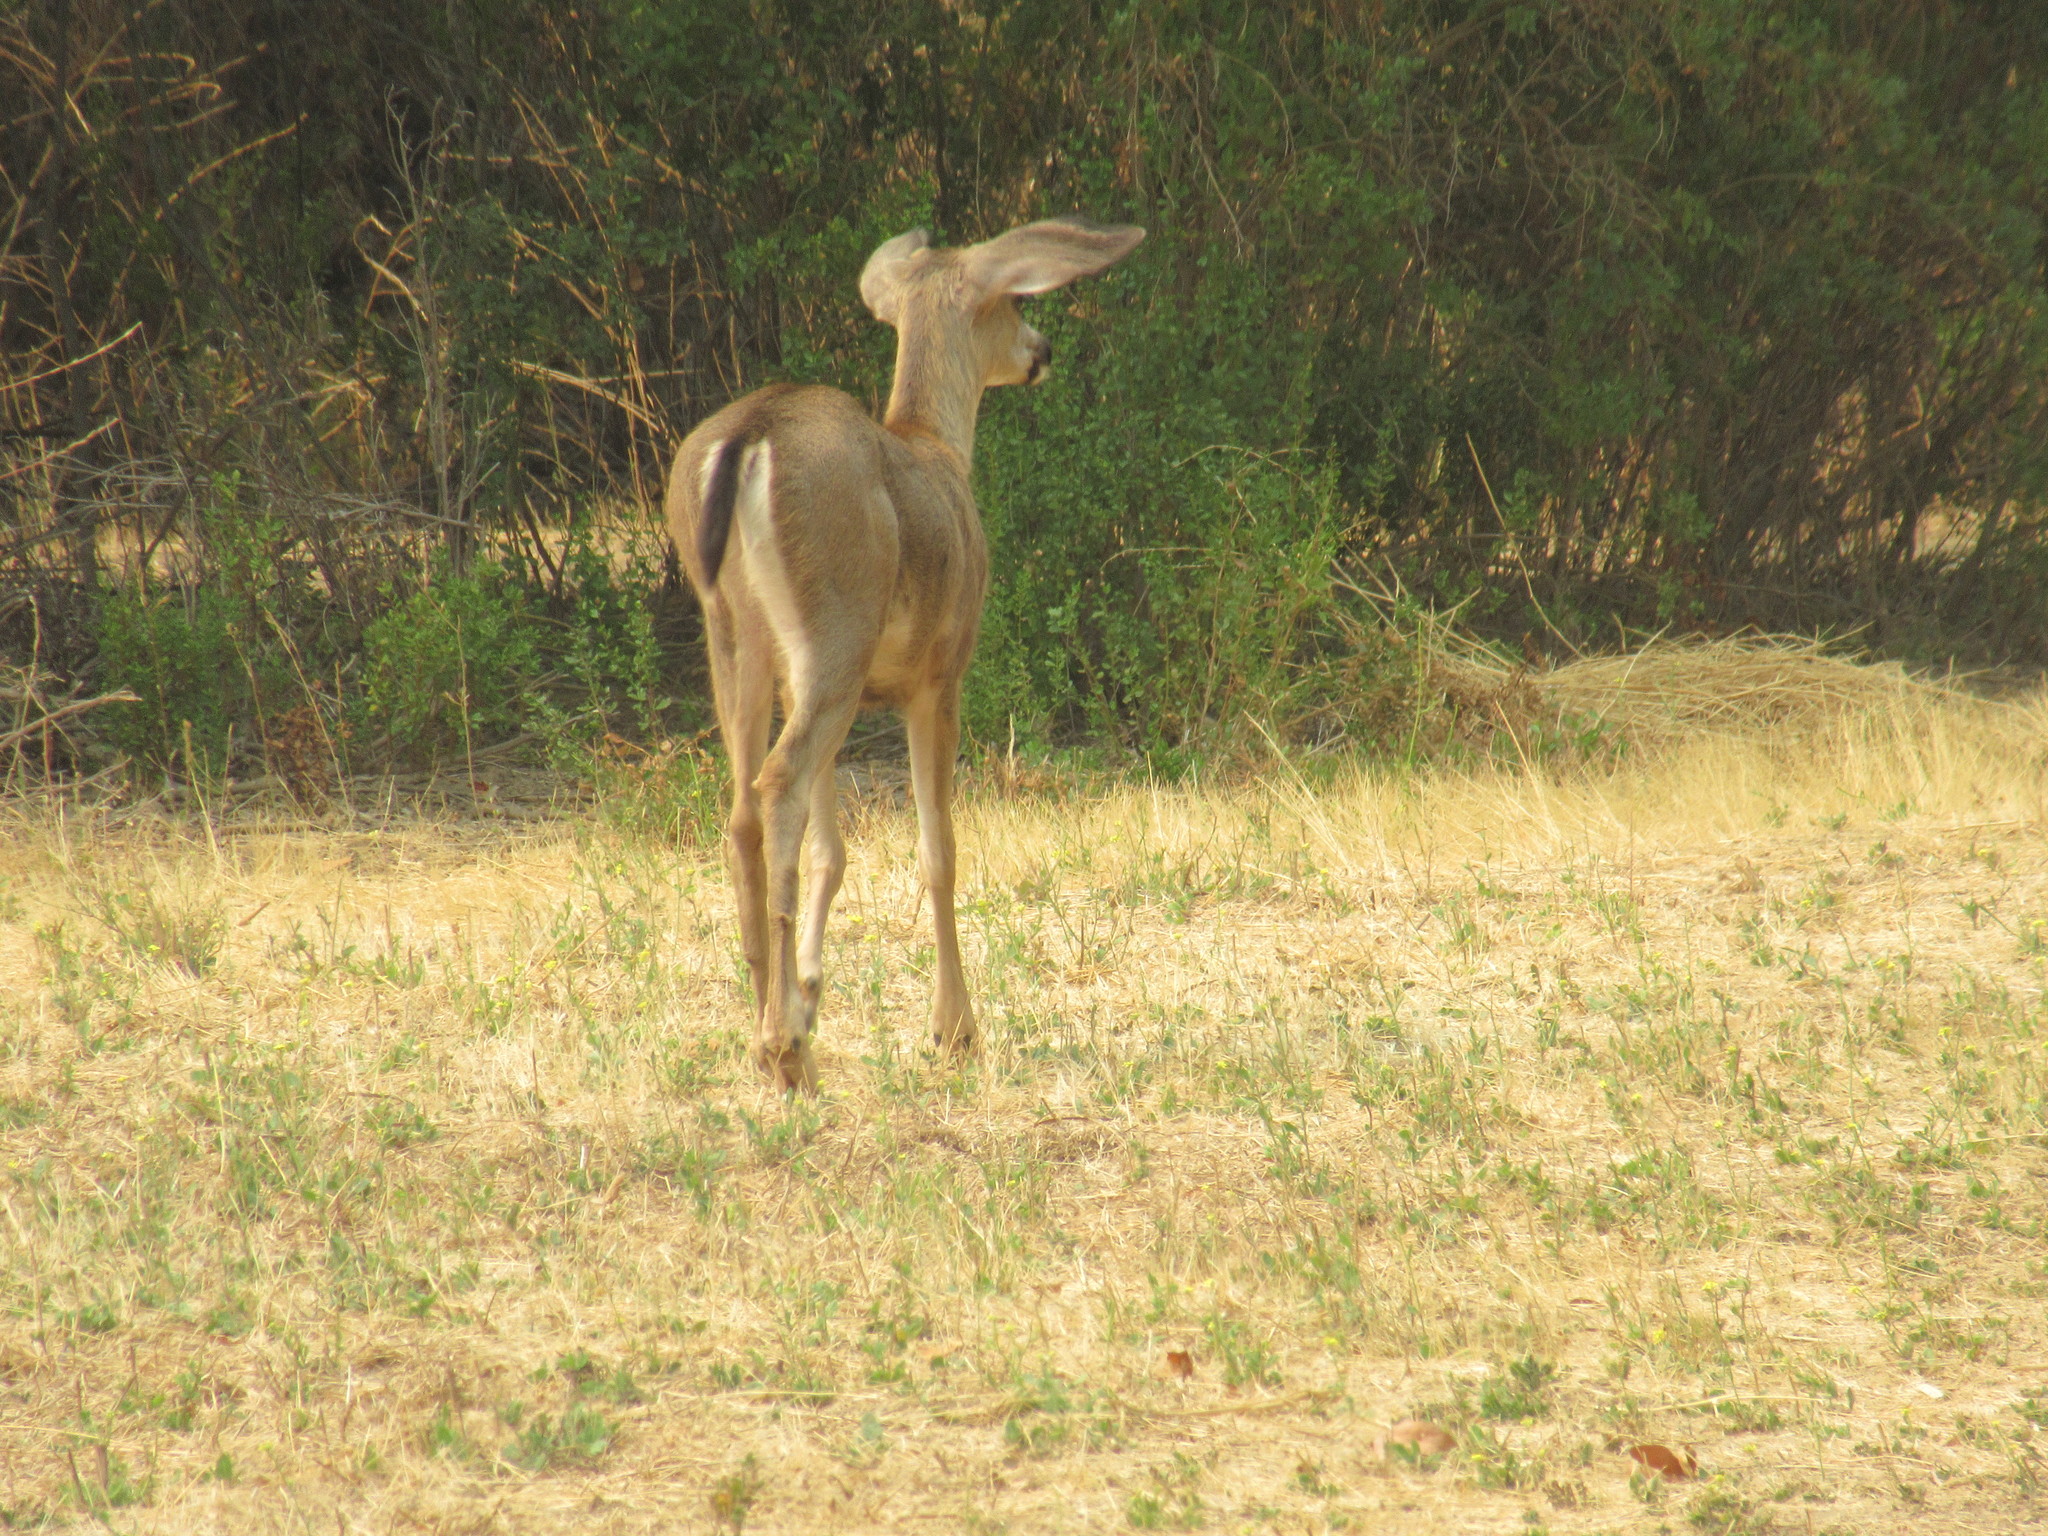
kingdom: Animalia
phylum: Chordata
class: Mammalia
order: Artiodactyla
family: Cervidae
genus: Odocoileus
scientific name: Odocoileus hemionus
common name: Mule deer
